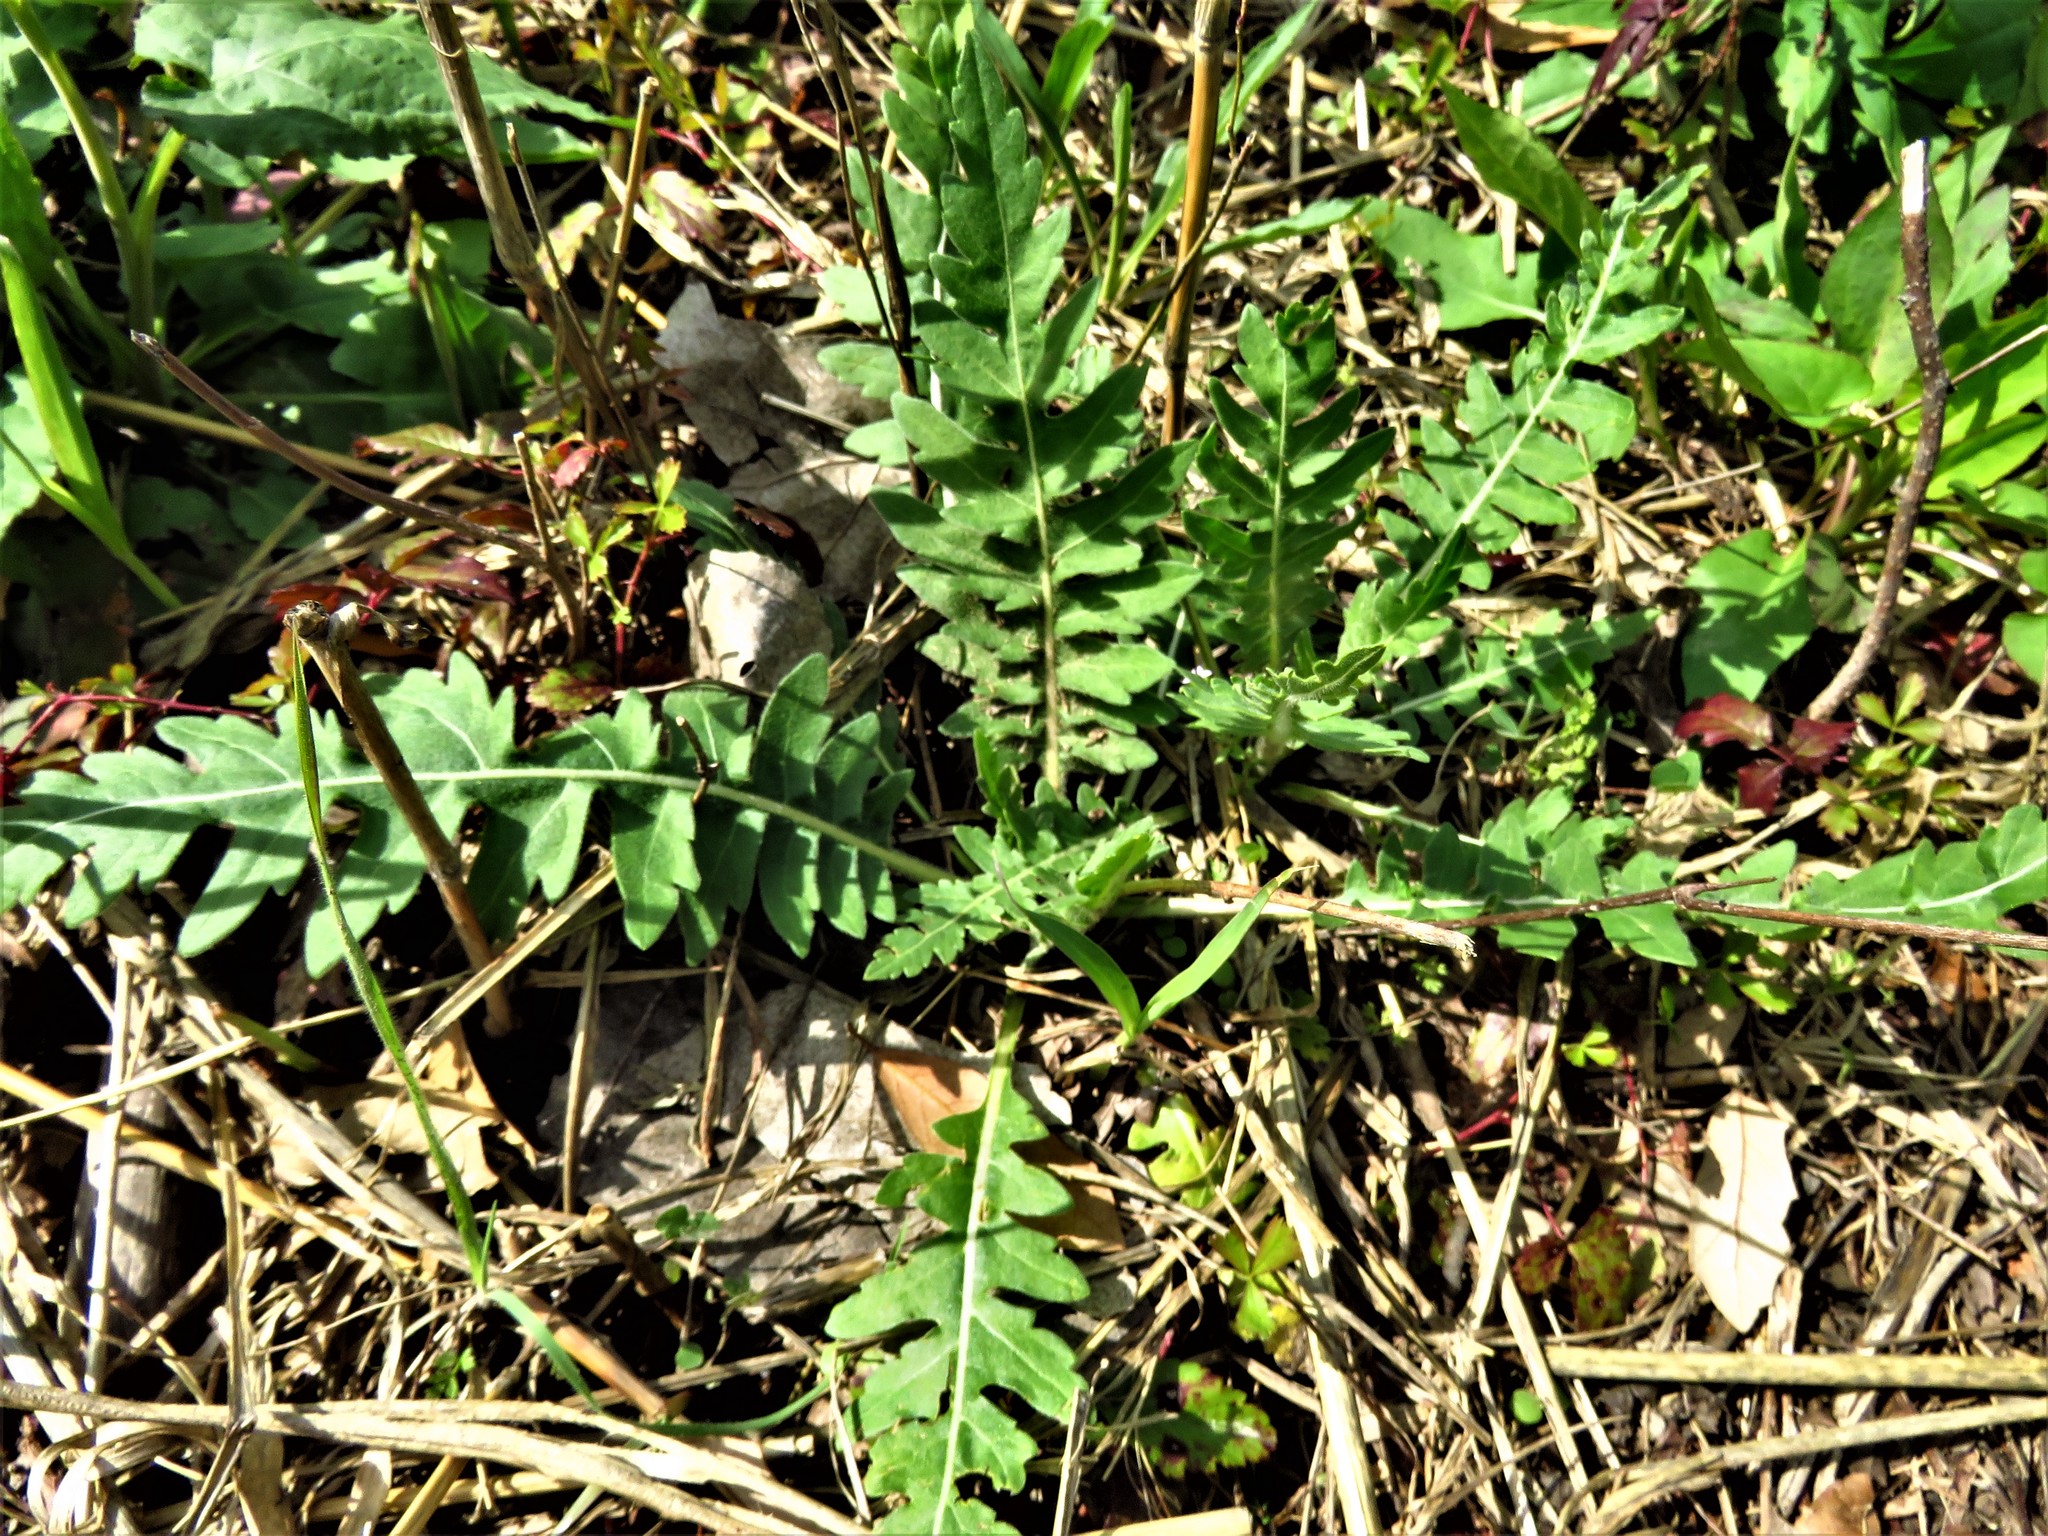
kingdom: Plantae
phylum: Tracheophyta
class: Magnoliopsida
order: Asterales
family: Asteraceae
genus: Engelmannia
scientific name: Engelmannia peristenia
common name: Engelmann's daisy
